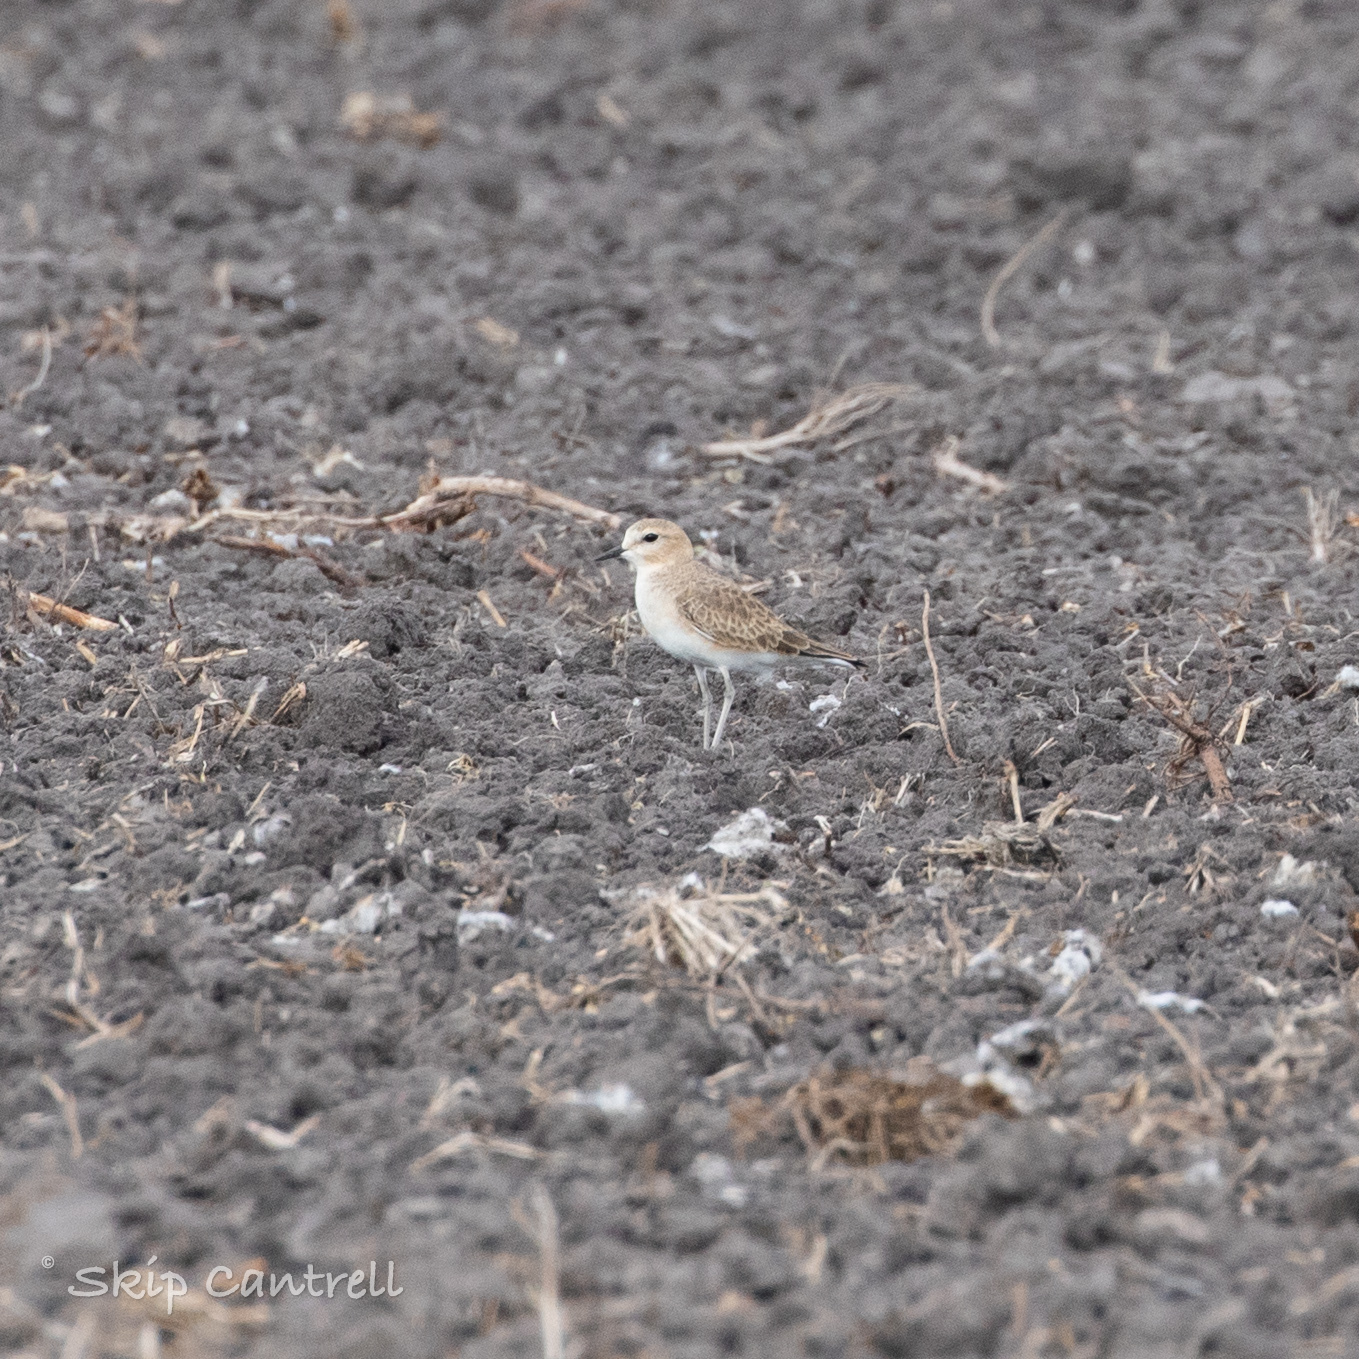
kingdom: Animalia
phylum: Chordata
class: Aves
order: Charadriiformes
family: Charadriidae
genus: Anarhynchus
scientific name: Anarhynchus
